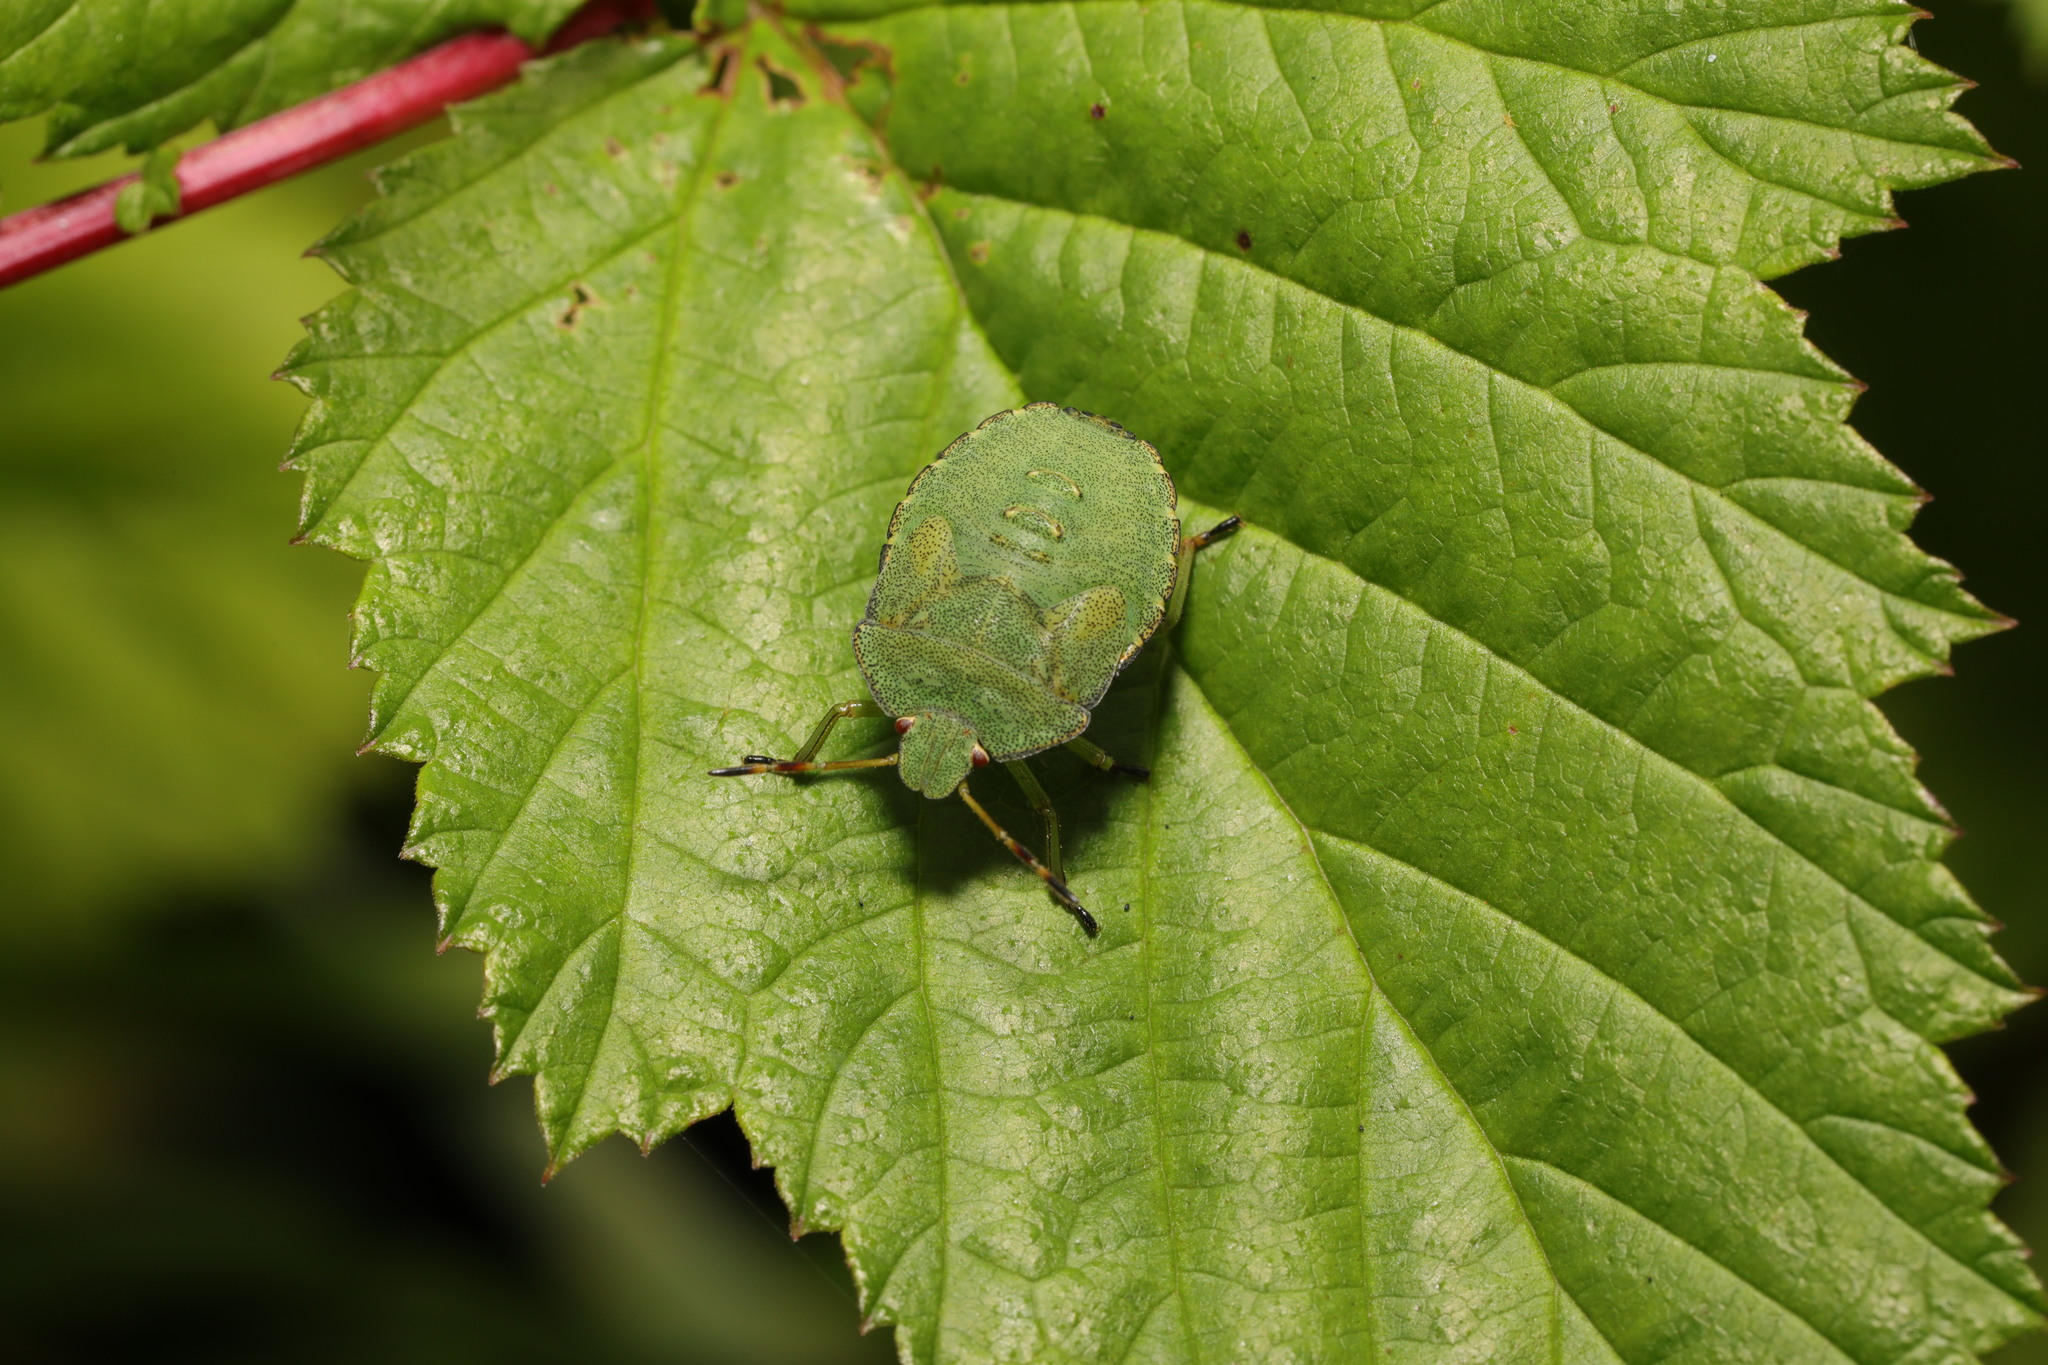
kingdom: Animalia
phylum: Arthropoda
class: Insecta
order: Hemiptera
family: Pentatomidae
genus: Palomena
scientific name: Palomena prasina
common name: Green shieldbug
